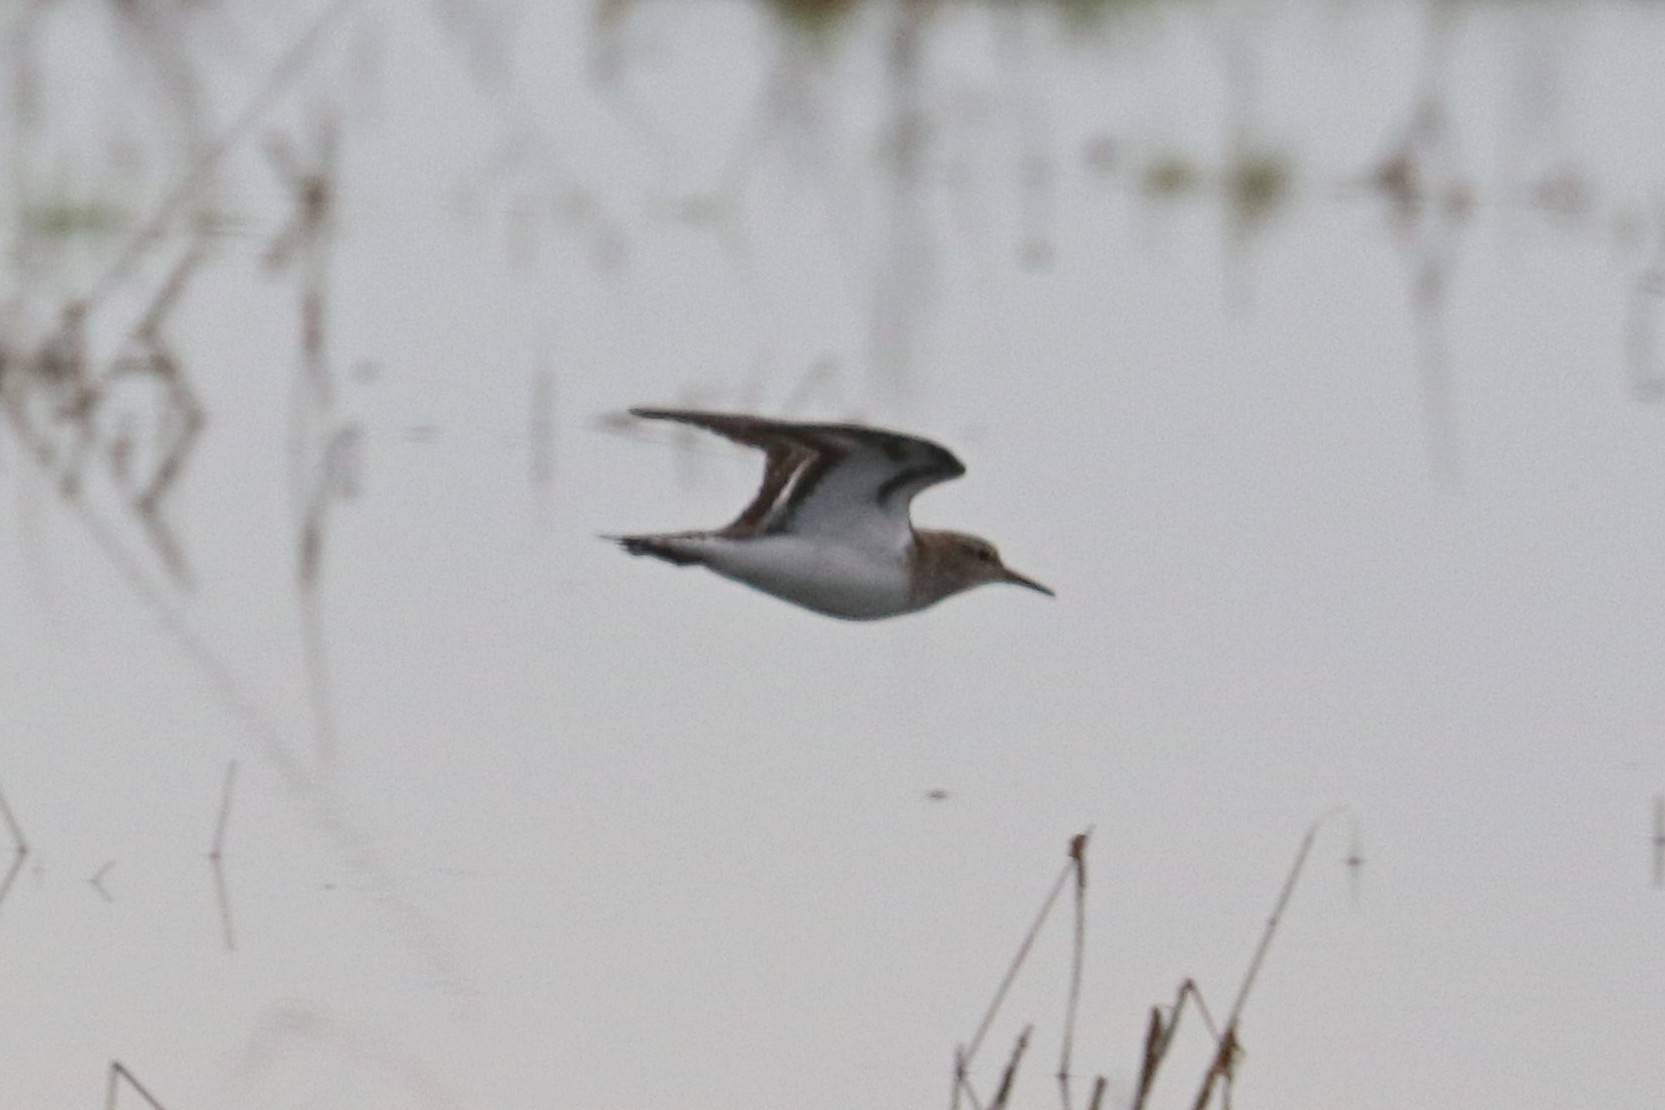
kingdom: Animalia
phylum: Chordata
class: Aves
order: Charadriiformes
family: Scolopacidae
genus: Actitis
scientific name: Actitis hypoleucos
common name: Common sandpiper
